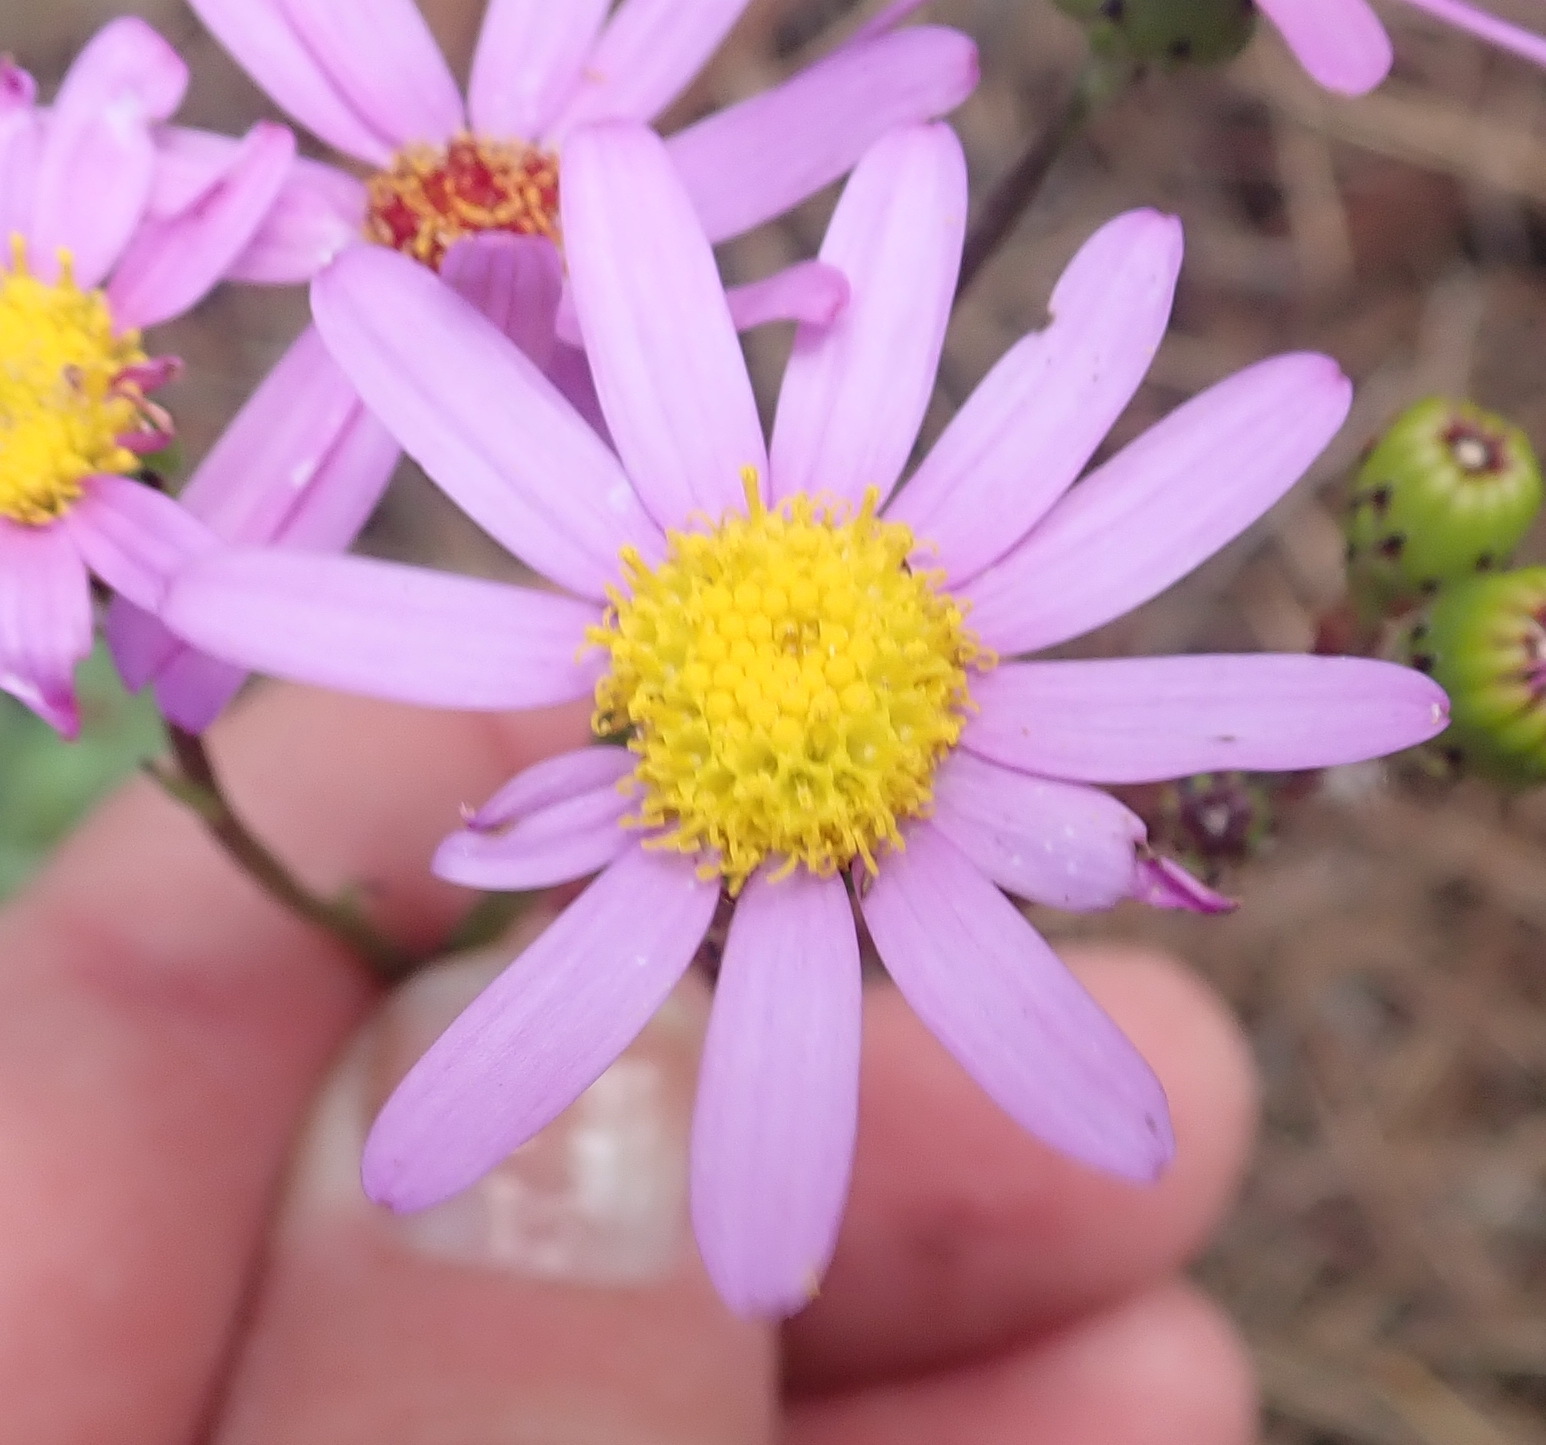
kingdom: Plantae
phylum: Tracheophyta
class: Magnoliopsida
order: Asterales
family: Asteraceae
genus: Senecio
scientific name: Senecio elegans
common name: Purple groundsel
